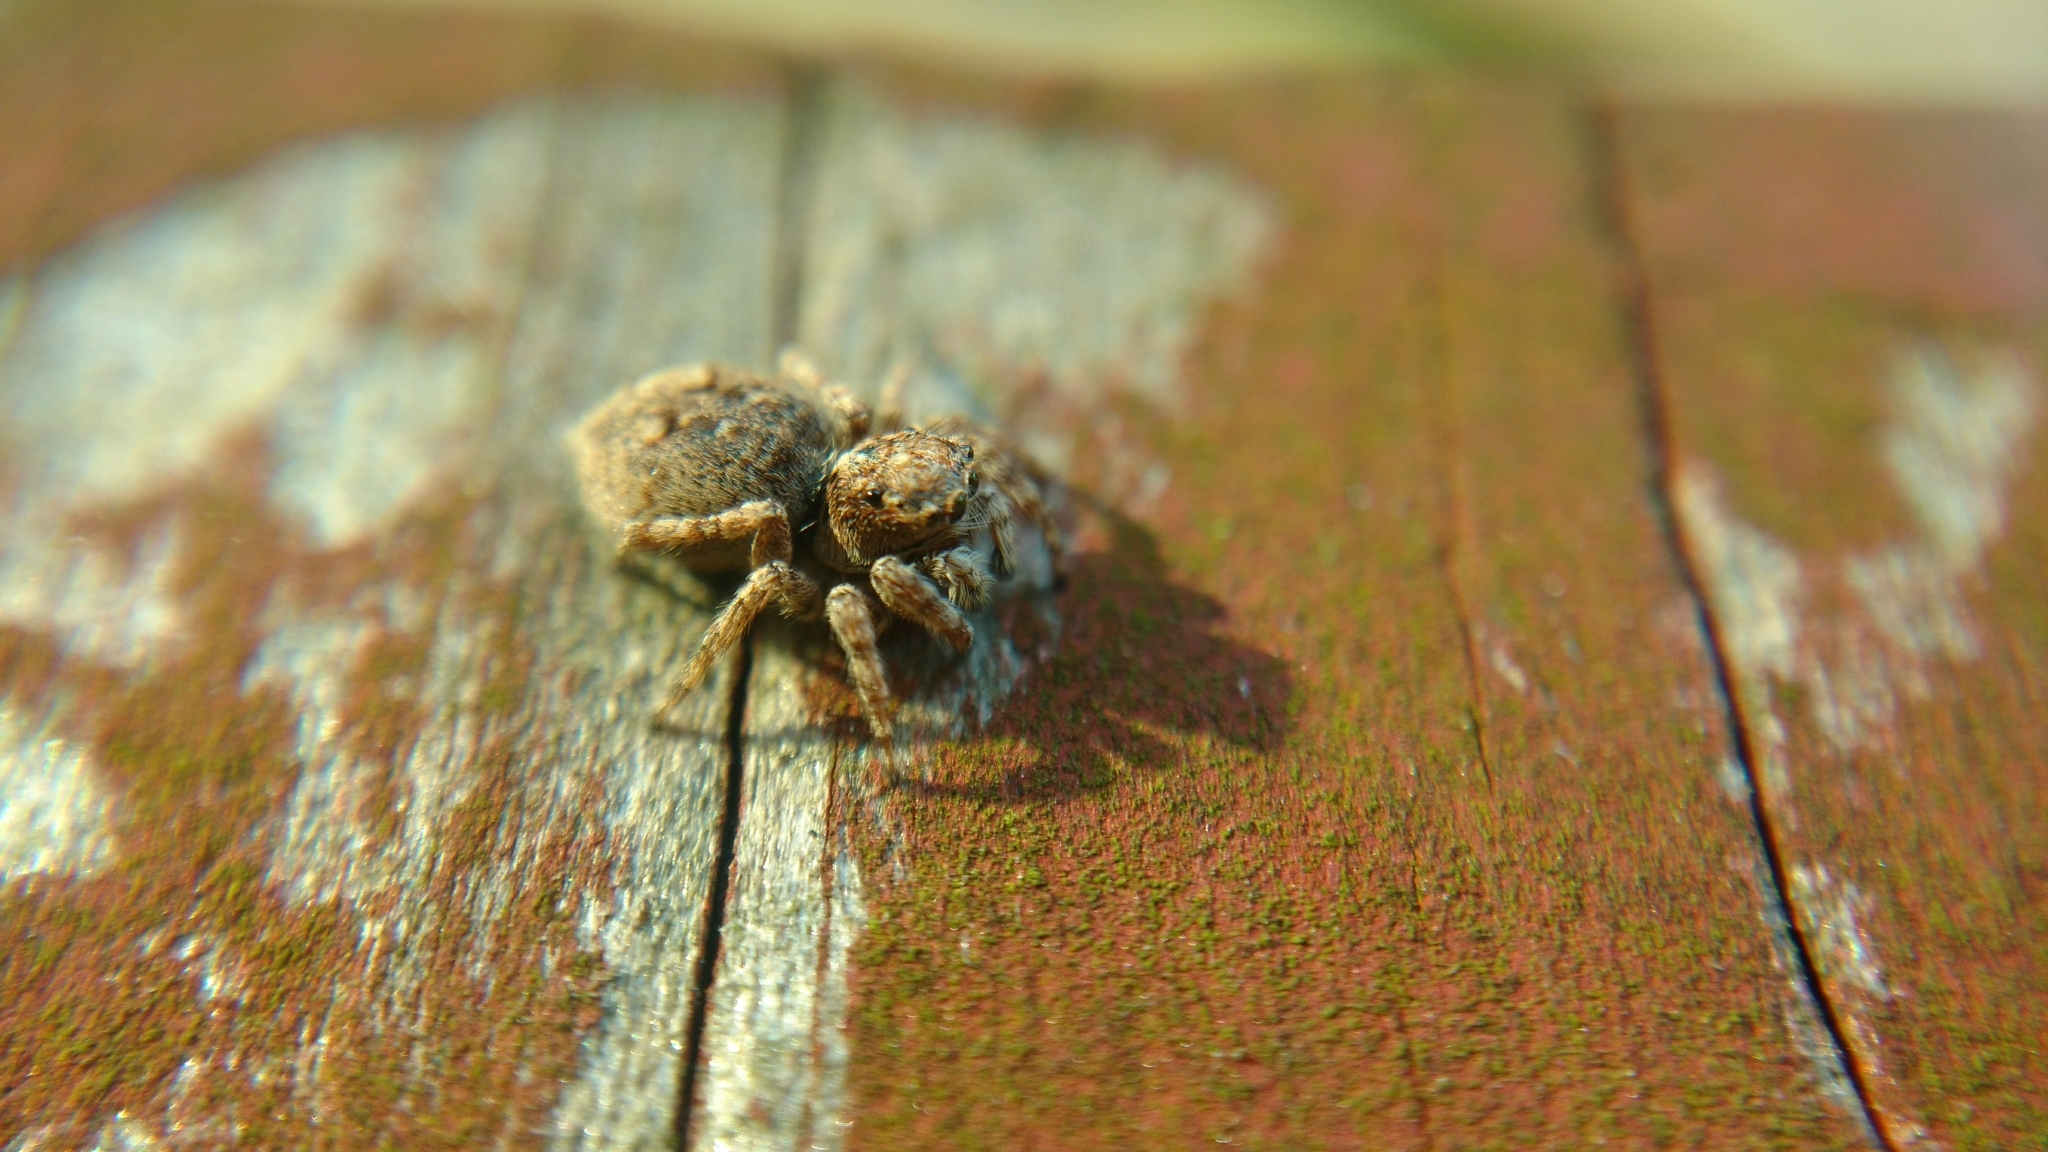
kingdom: Animalia
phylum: Arthropoda
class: Arachnida
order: Araneae
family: Salticidae
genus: Attulus
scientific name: Attulus fasciger
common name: Asiatic wall jumping spider
